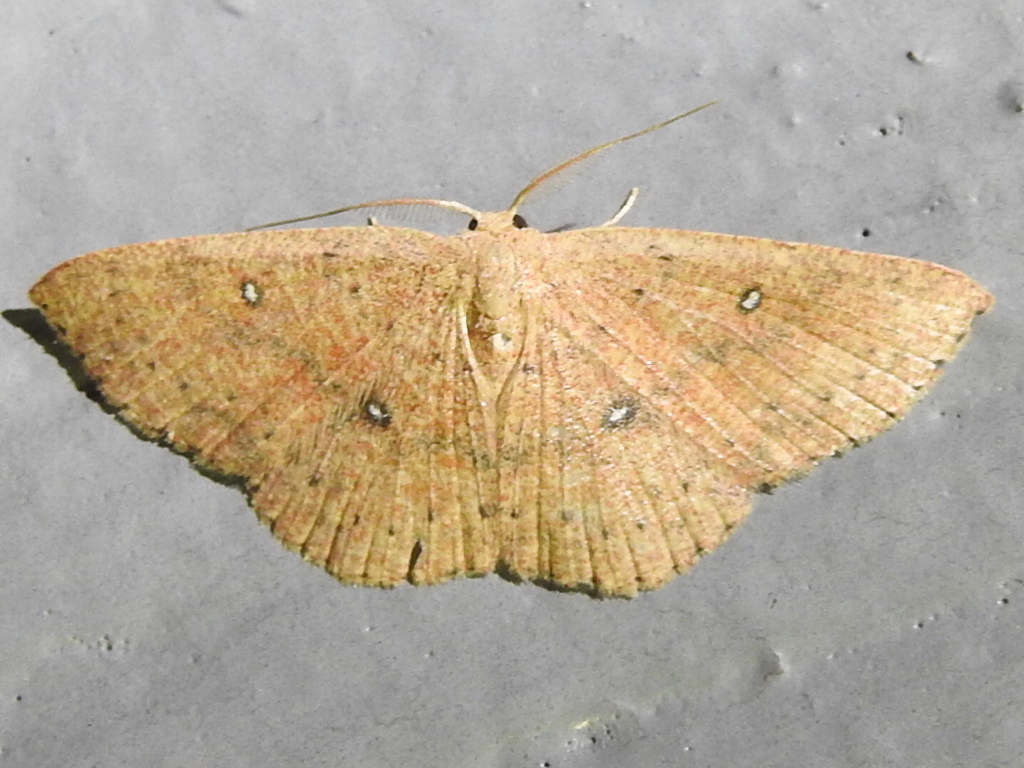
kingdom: Animalia
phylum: Arthropoda
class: Insecta
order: Lepidoptera
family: Geometridae
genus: Cyclophora
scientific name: Cyclophora packardi
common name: Packard's wave
